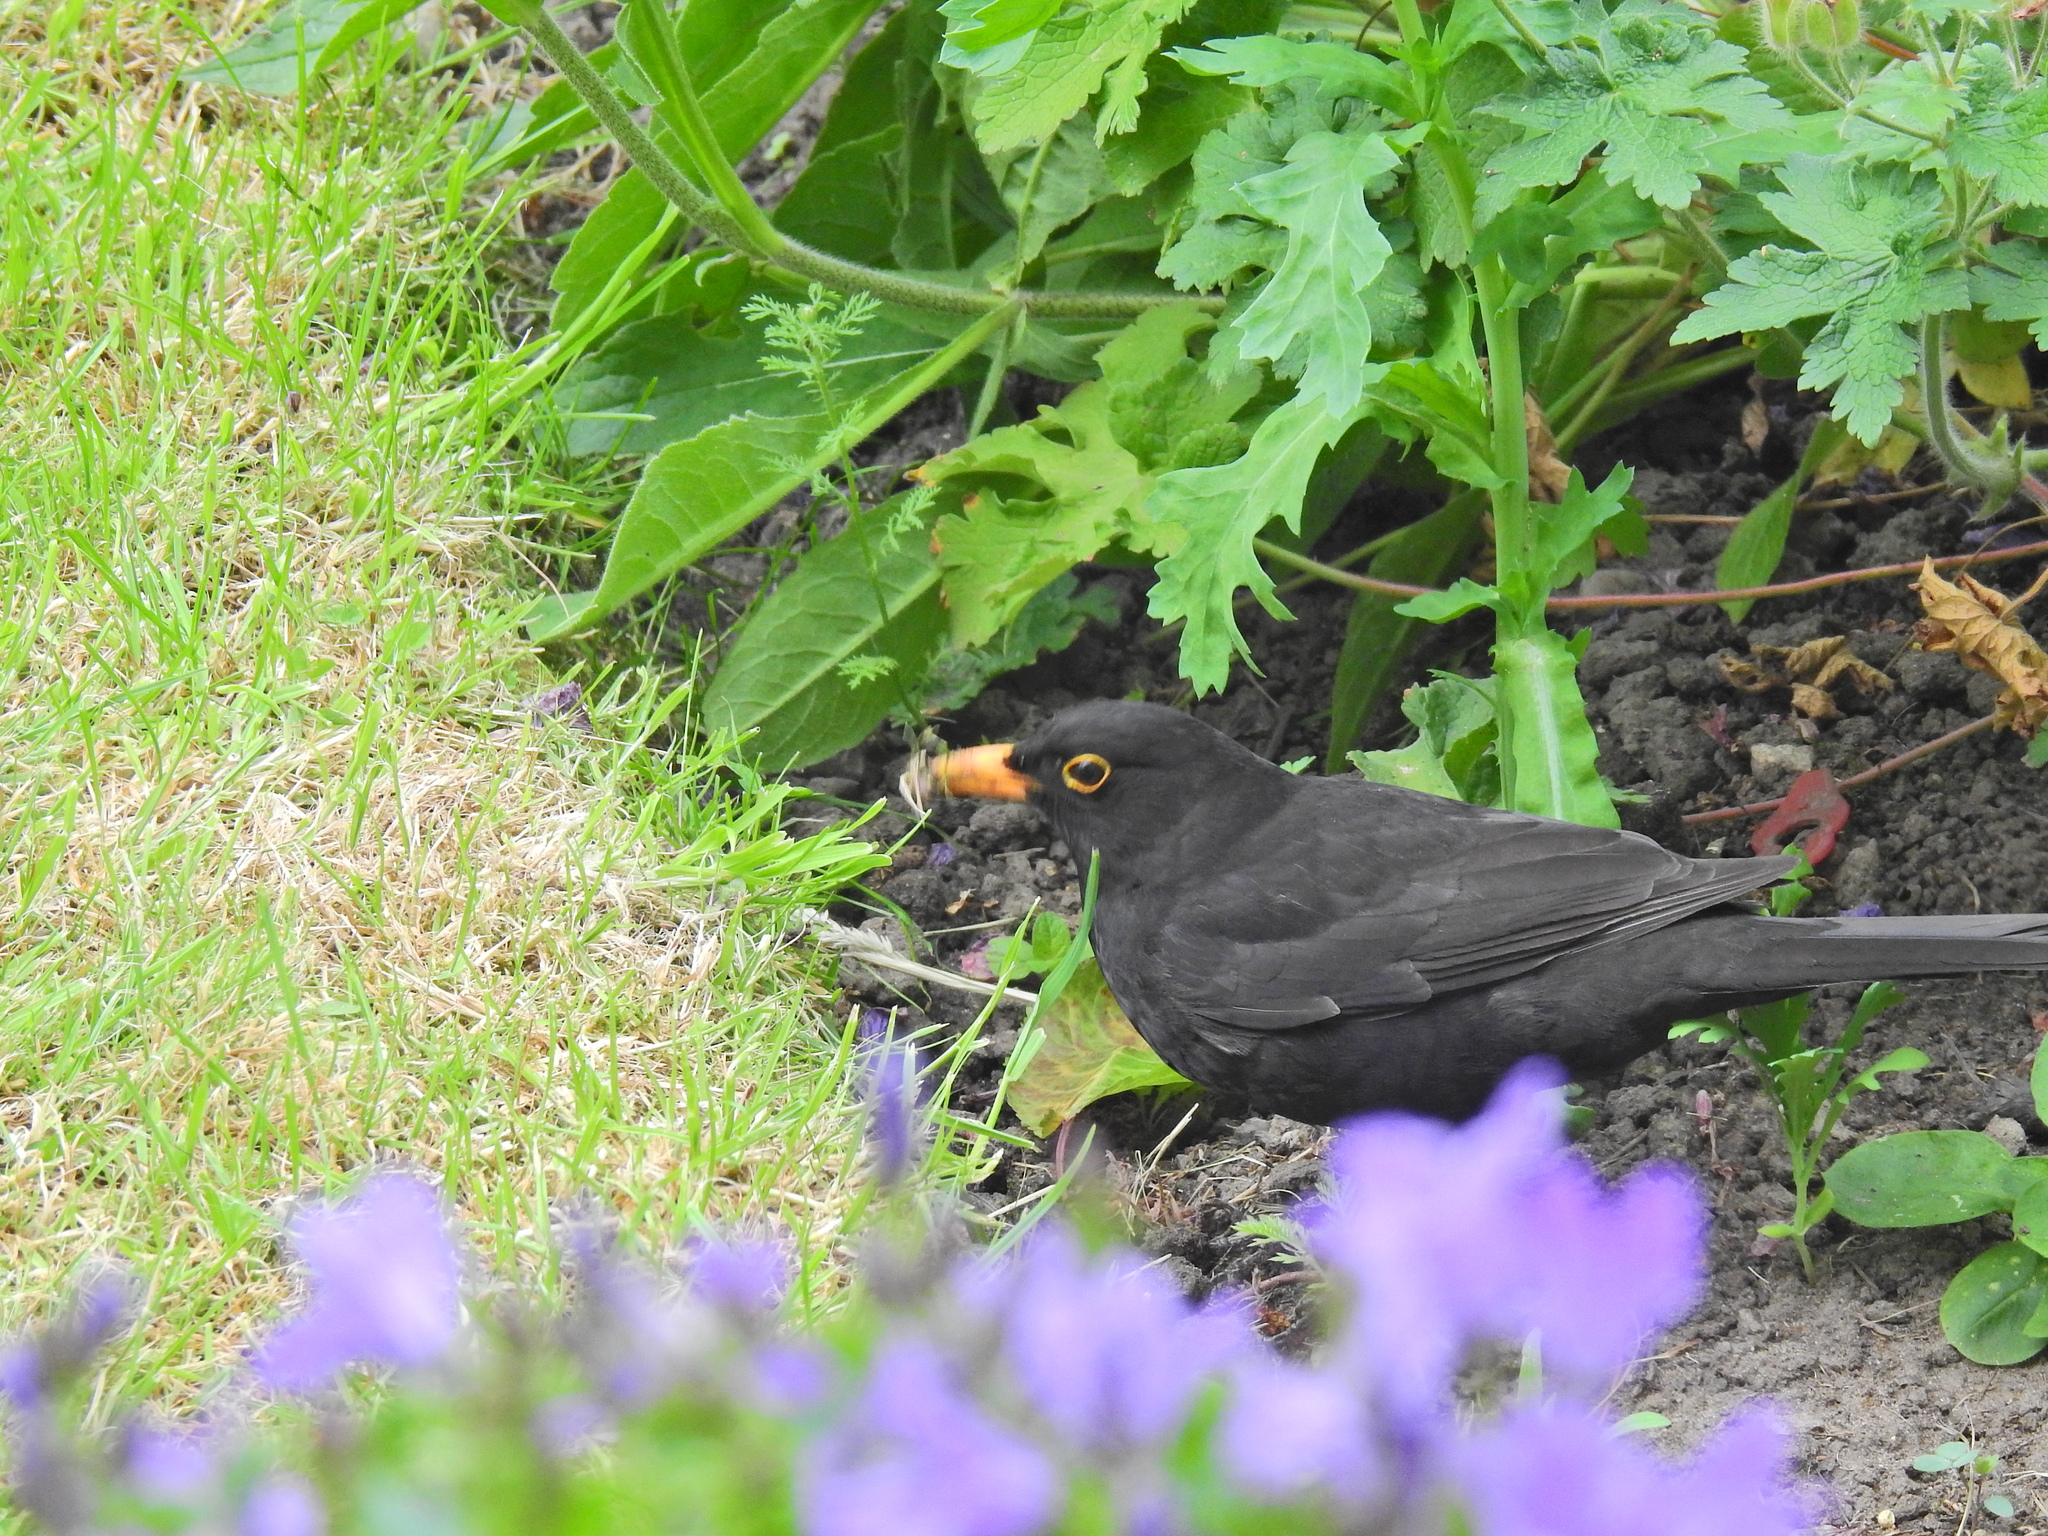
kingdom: Animalia
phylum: Chordata
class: Aves
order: Passeriformes
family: Turdidae
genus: Turdus
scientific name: Turdus merula
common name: Common blackbird
